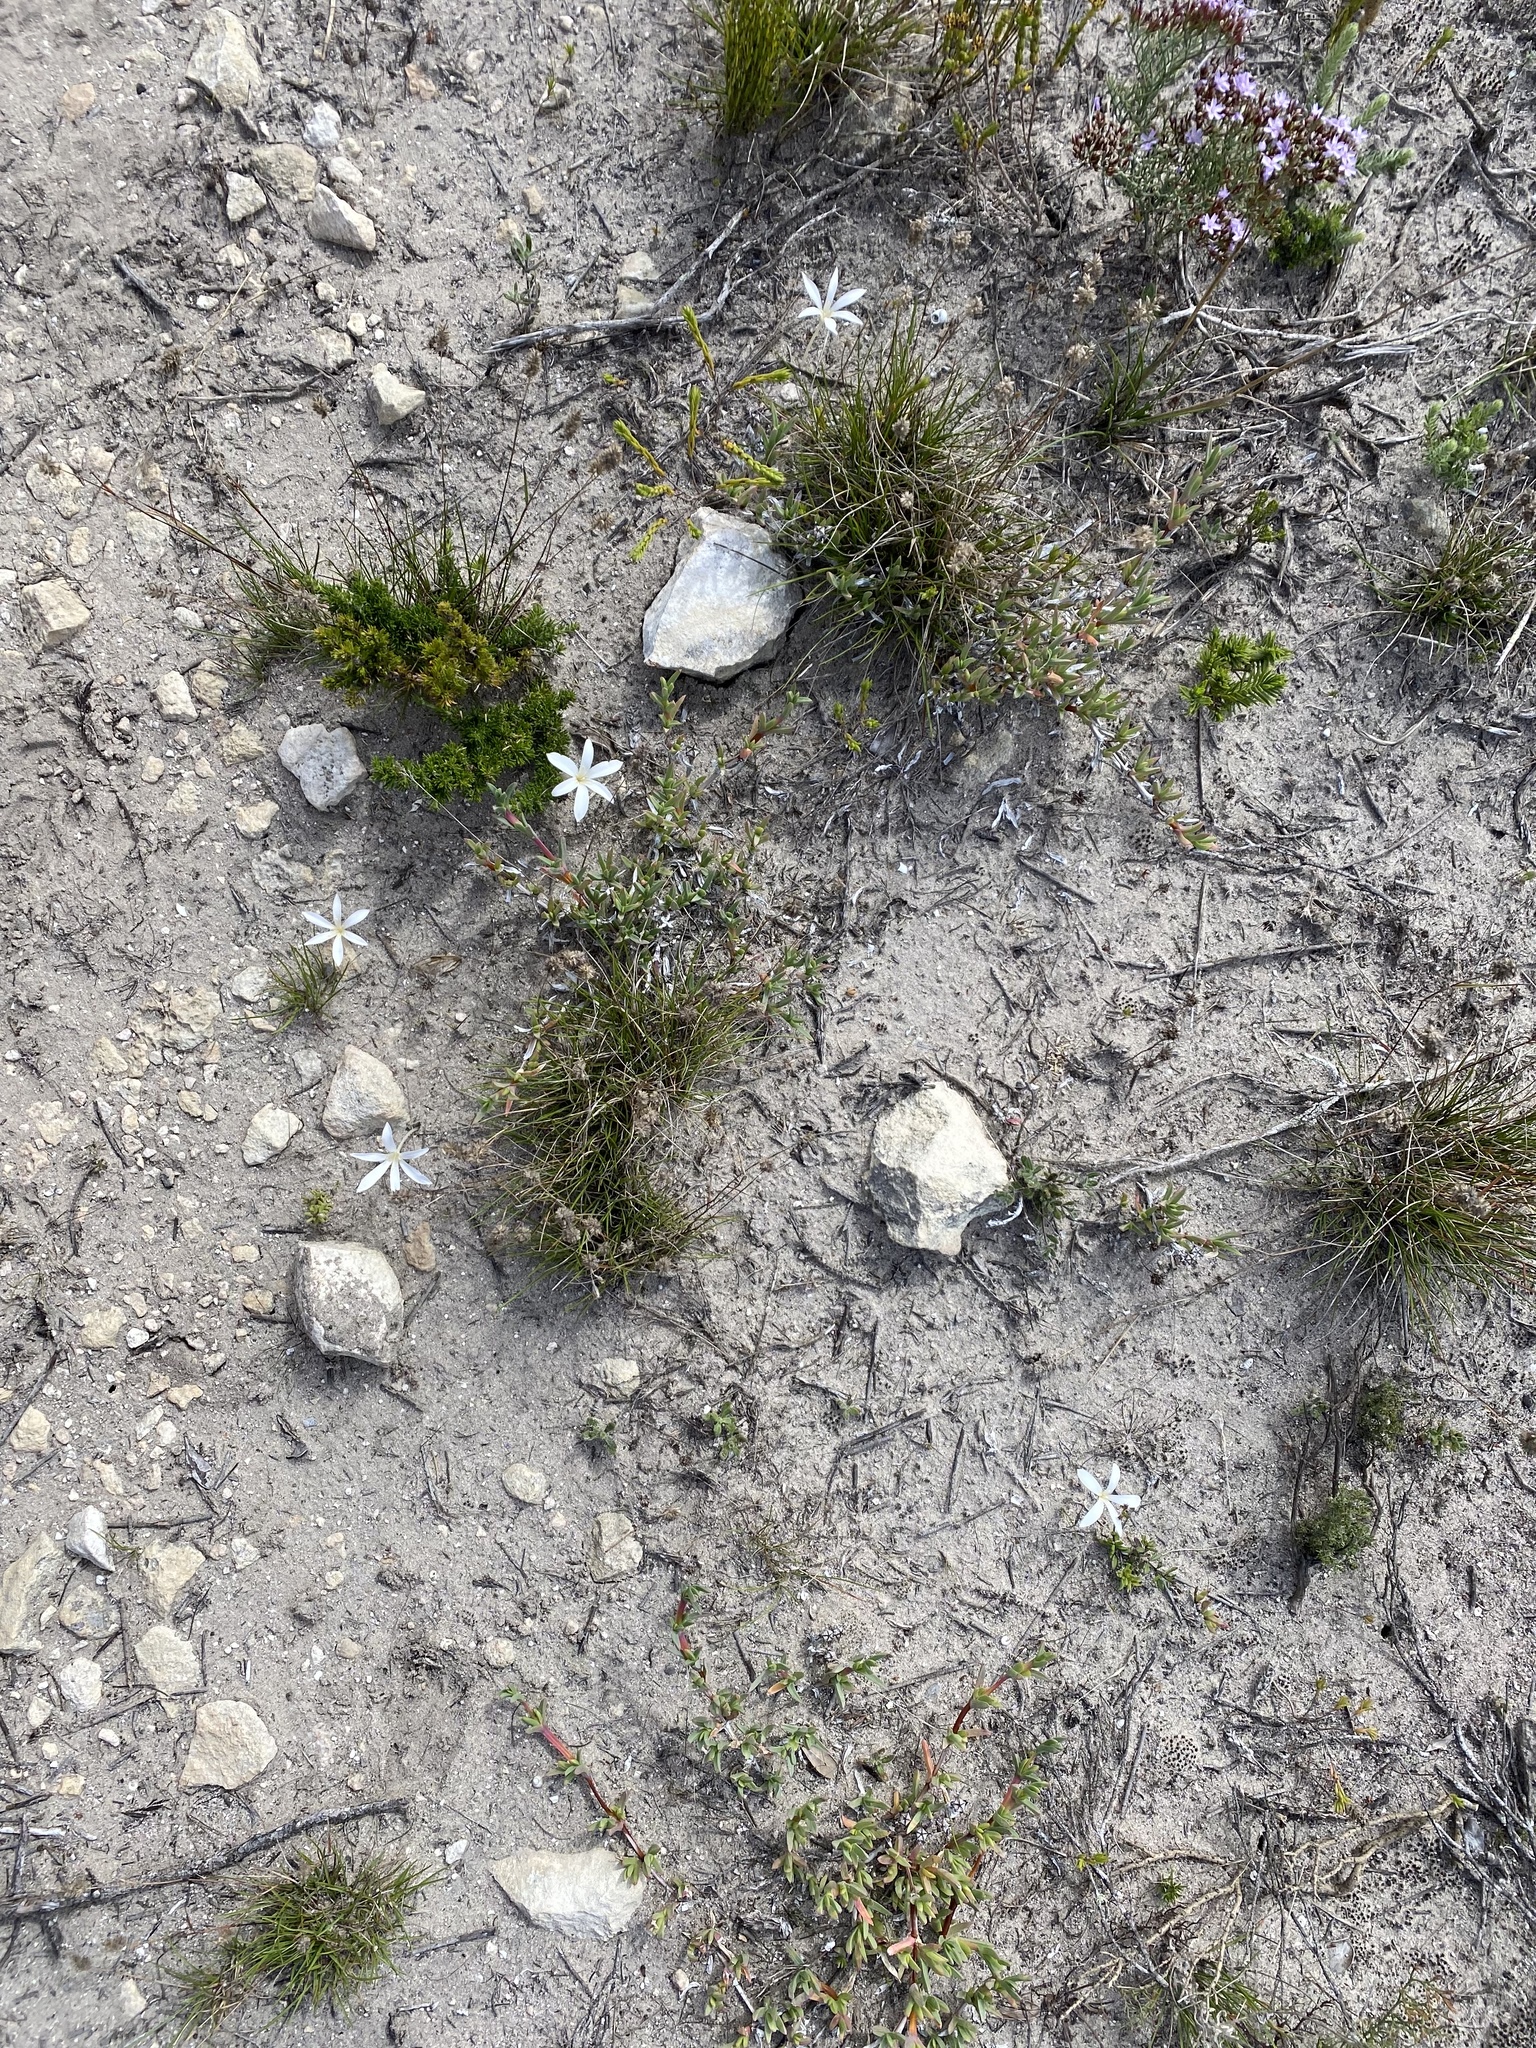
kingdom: Plantae
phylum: Tracheophyta
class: Liliopsida
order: Asparagales
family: Amaryllidaceae
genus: Apodolirion
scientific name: Apodolirion lanceolatum
